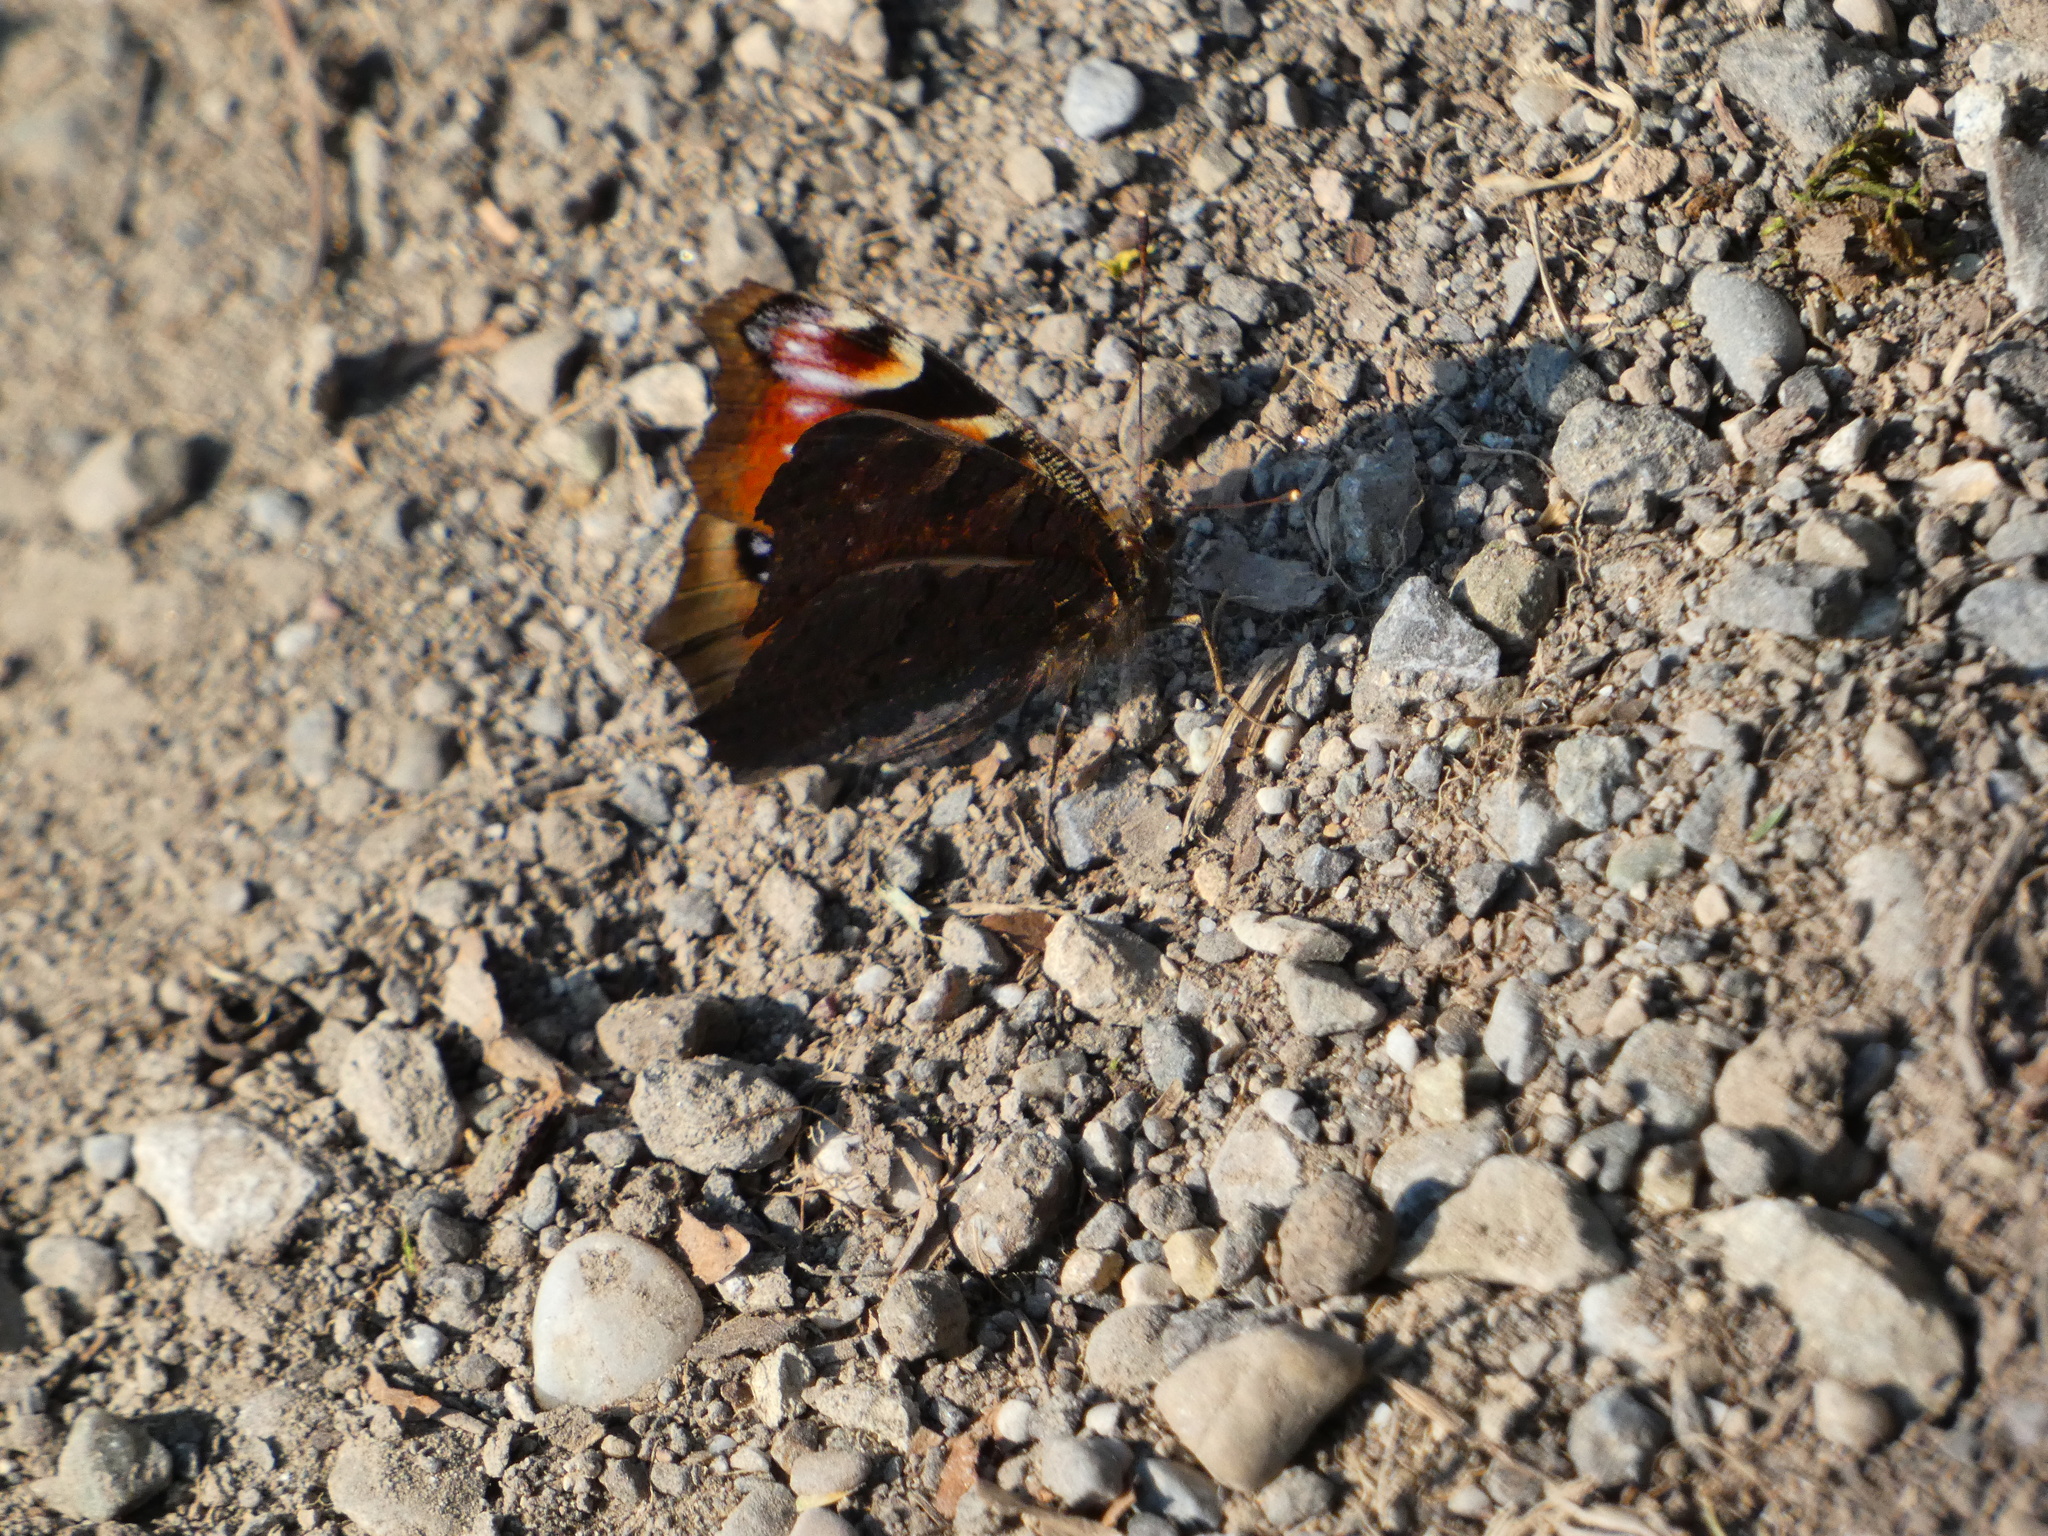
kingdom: Animalia
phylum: Arthropoda
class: Insecta
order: Lepidoptera
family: Nymphalidae
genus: Aglais
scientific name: Aglais io
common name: Peacock
